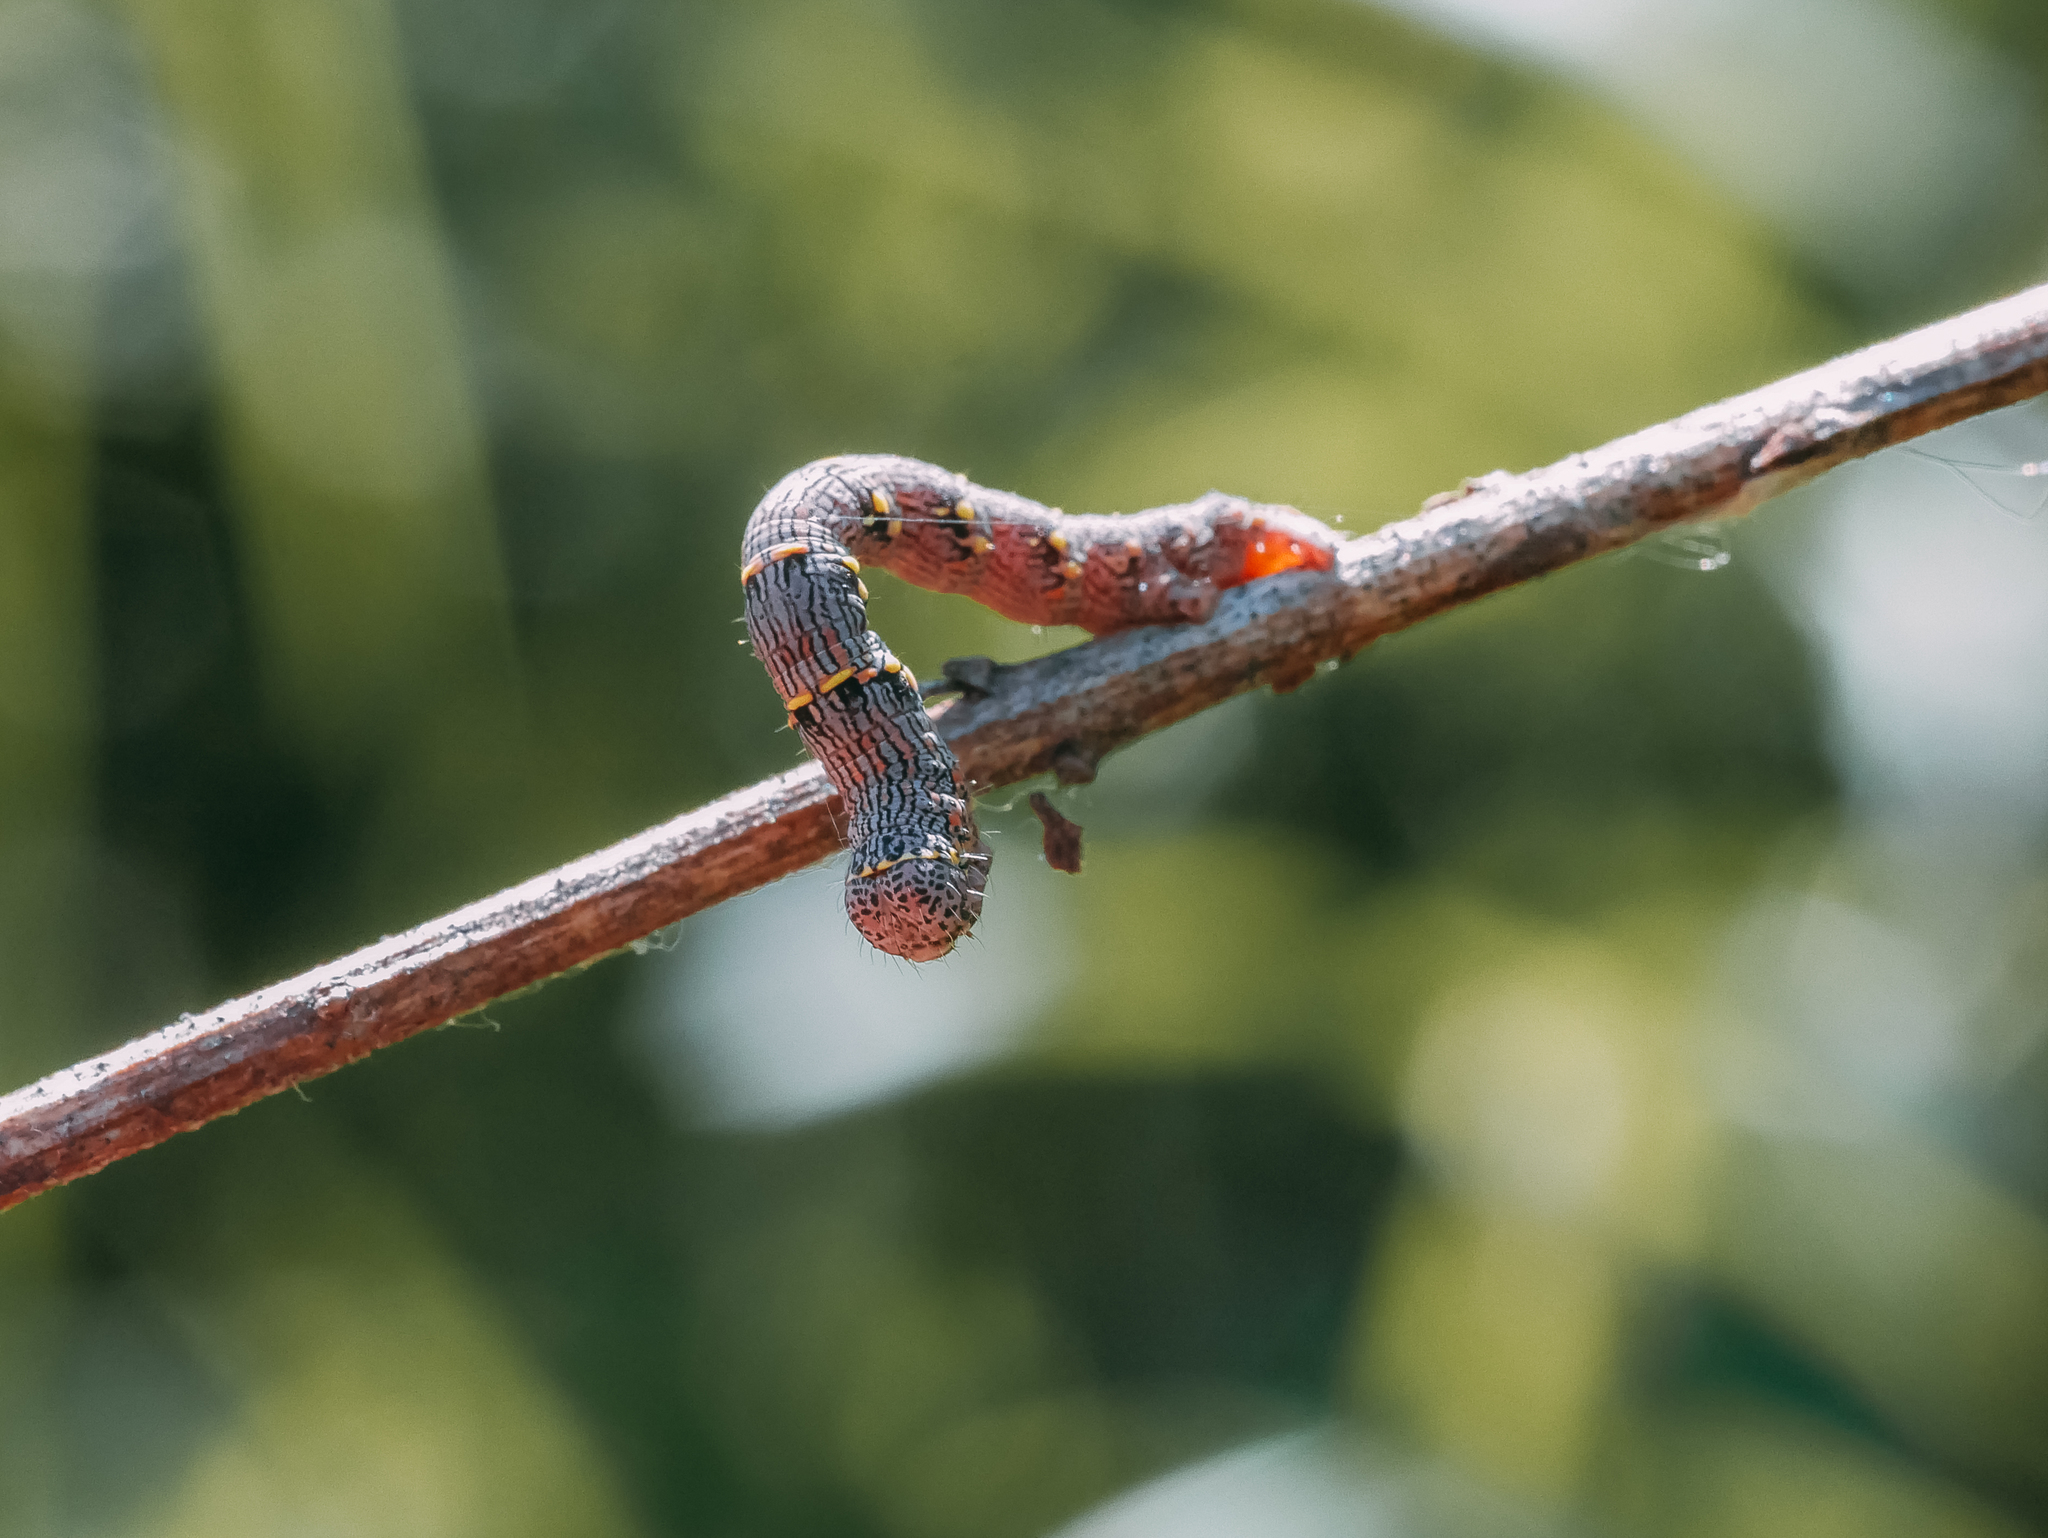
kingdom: Animalia
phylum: Arthropoda
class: Insecta
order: Lepidoptera
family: Geometridae
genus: Lycia
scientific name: Lycia hirtaria
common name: Brindled beauty
